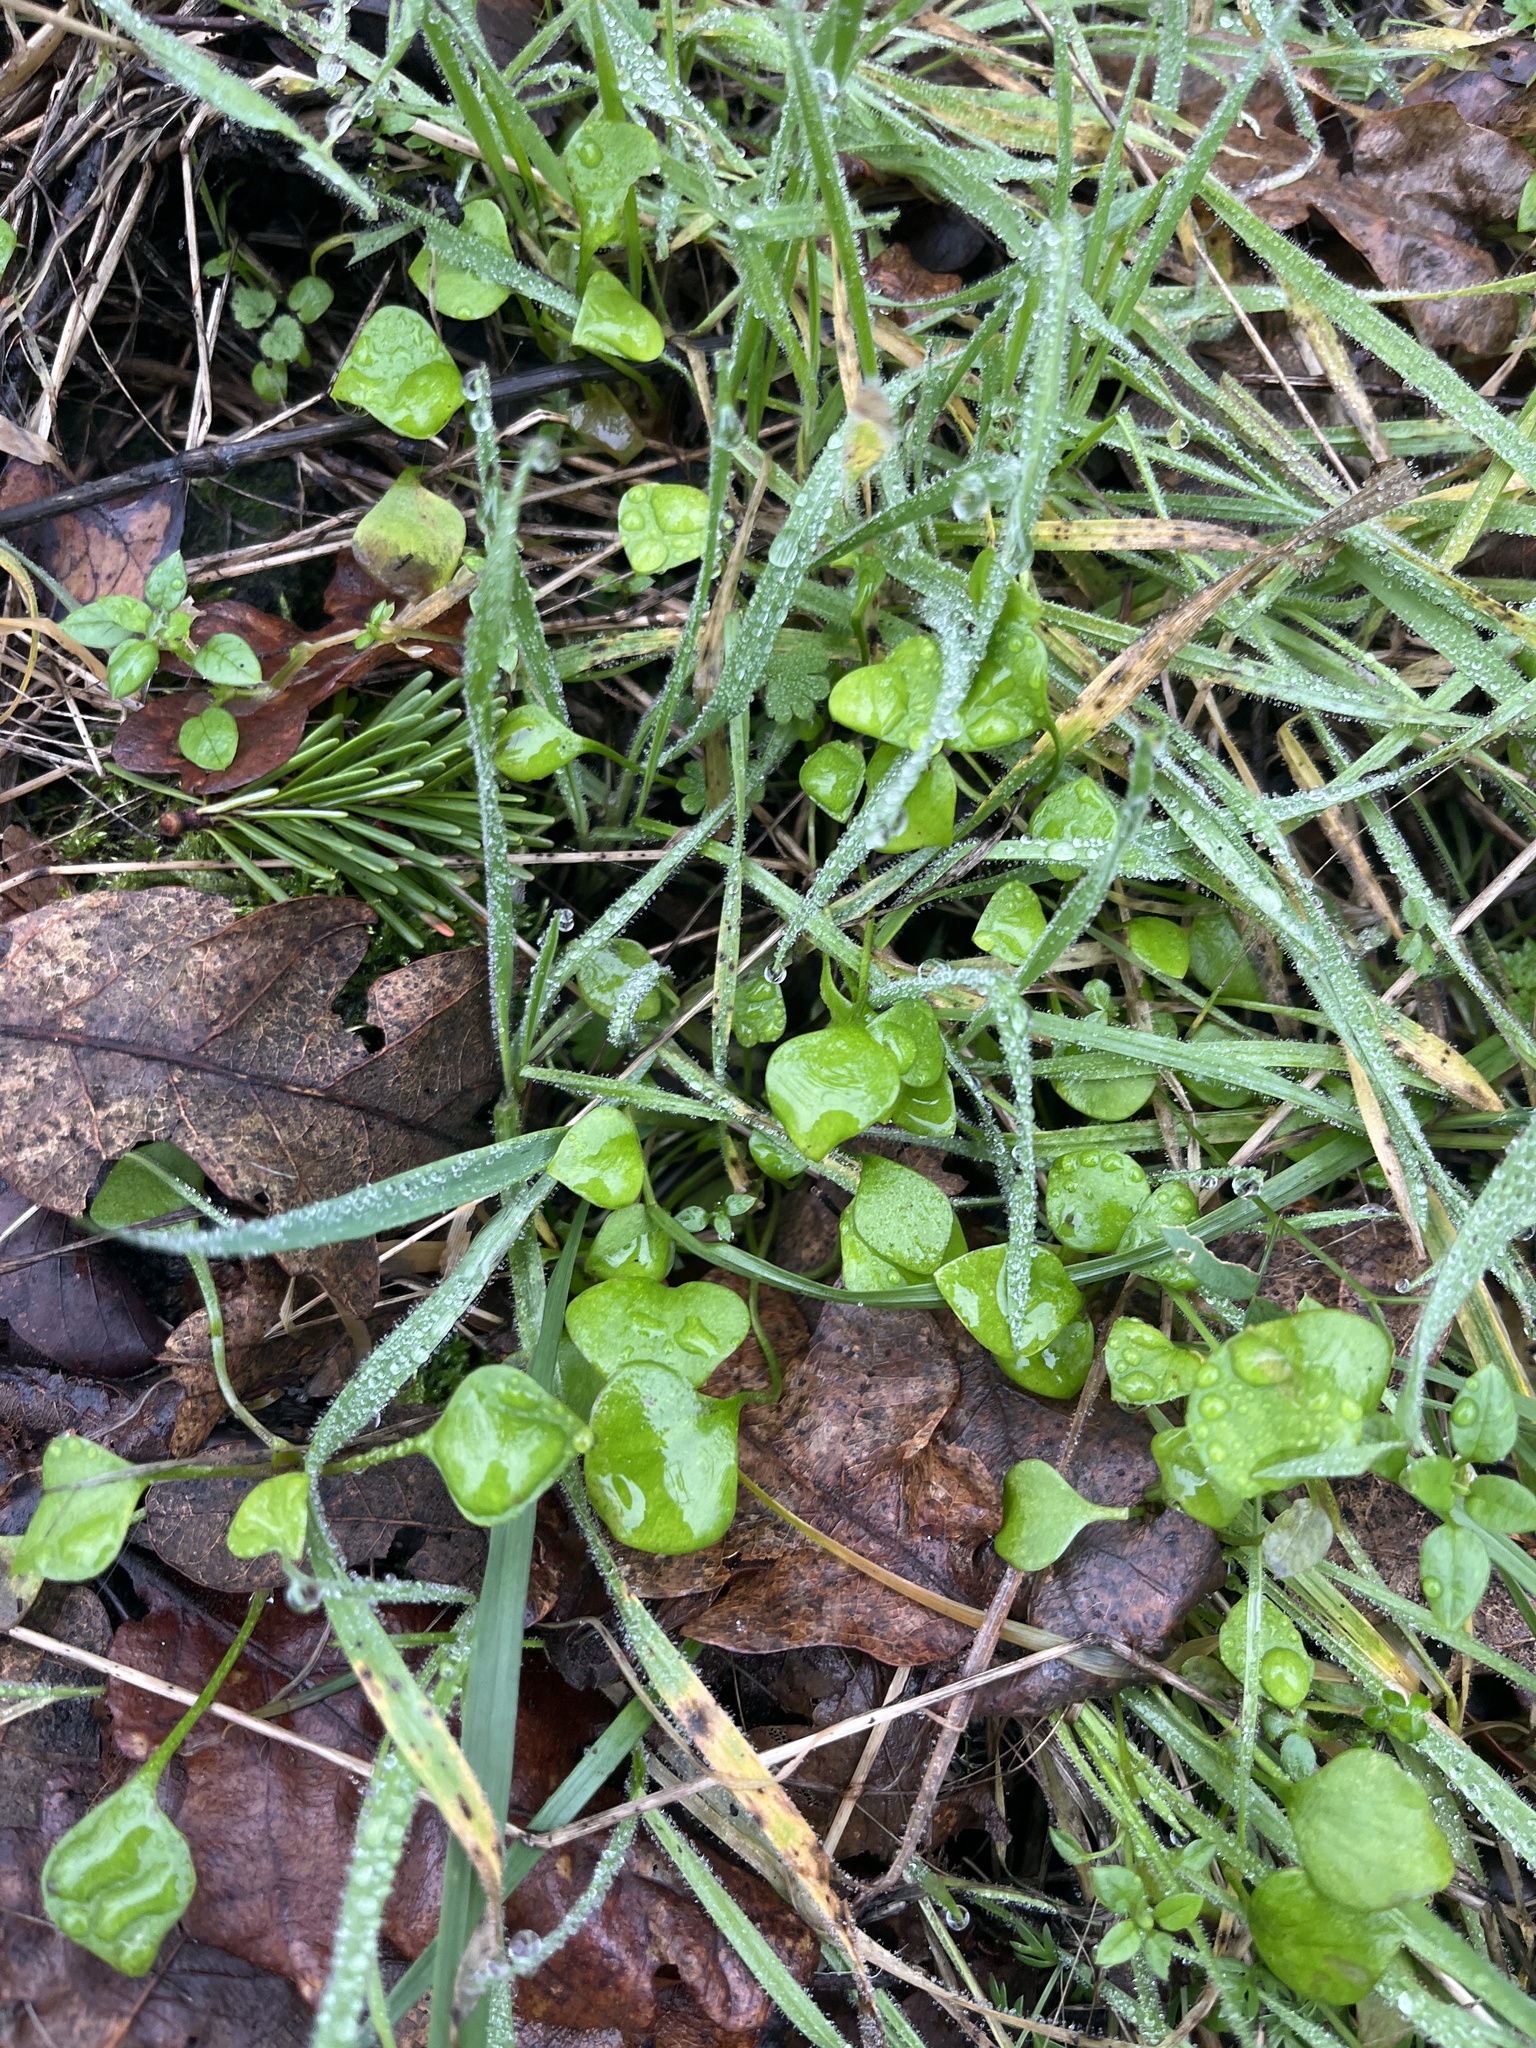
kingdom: Plantae
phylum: Tracheophyta
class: Magnoliopsida
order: Caryophyllales
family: Montiaceae
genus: Claytonia
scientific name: Claytonia perfoliata
